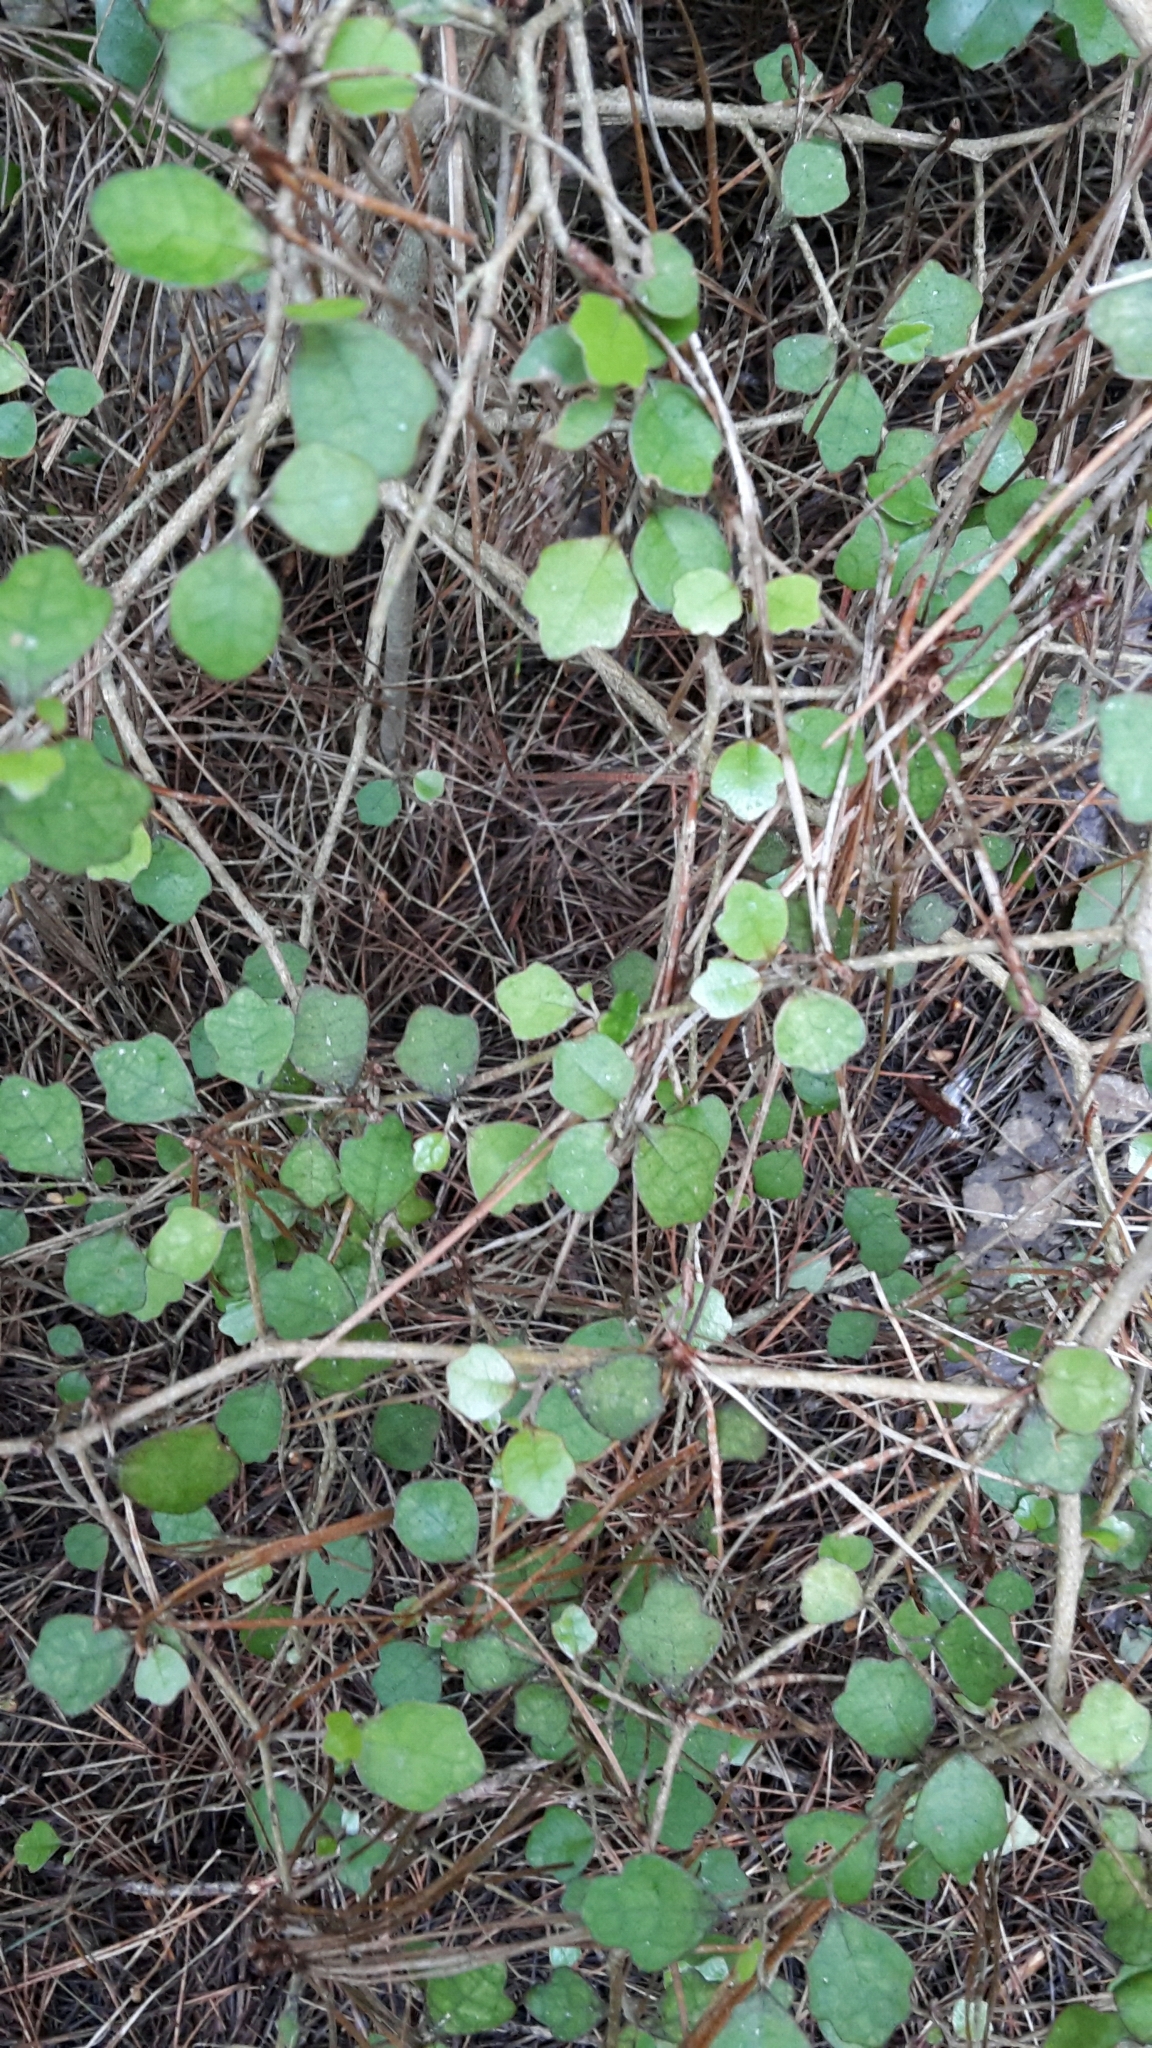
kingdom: Plantae
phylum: Tracheophyta
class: Magnoliopsida
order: Apiales
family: Pennantiaceae
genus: Pennantia
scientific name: Pennantia corymbosa
